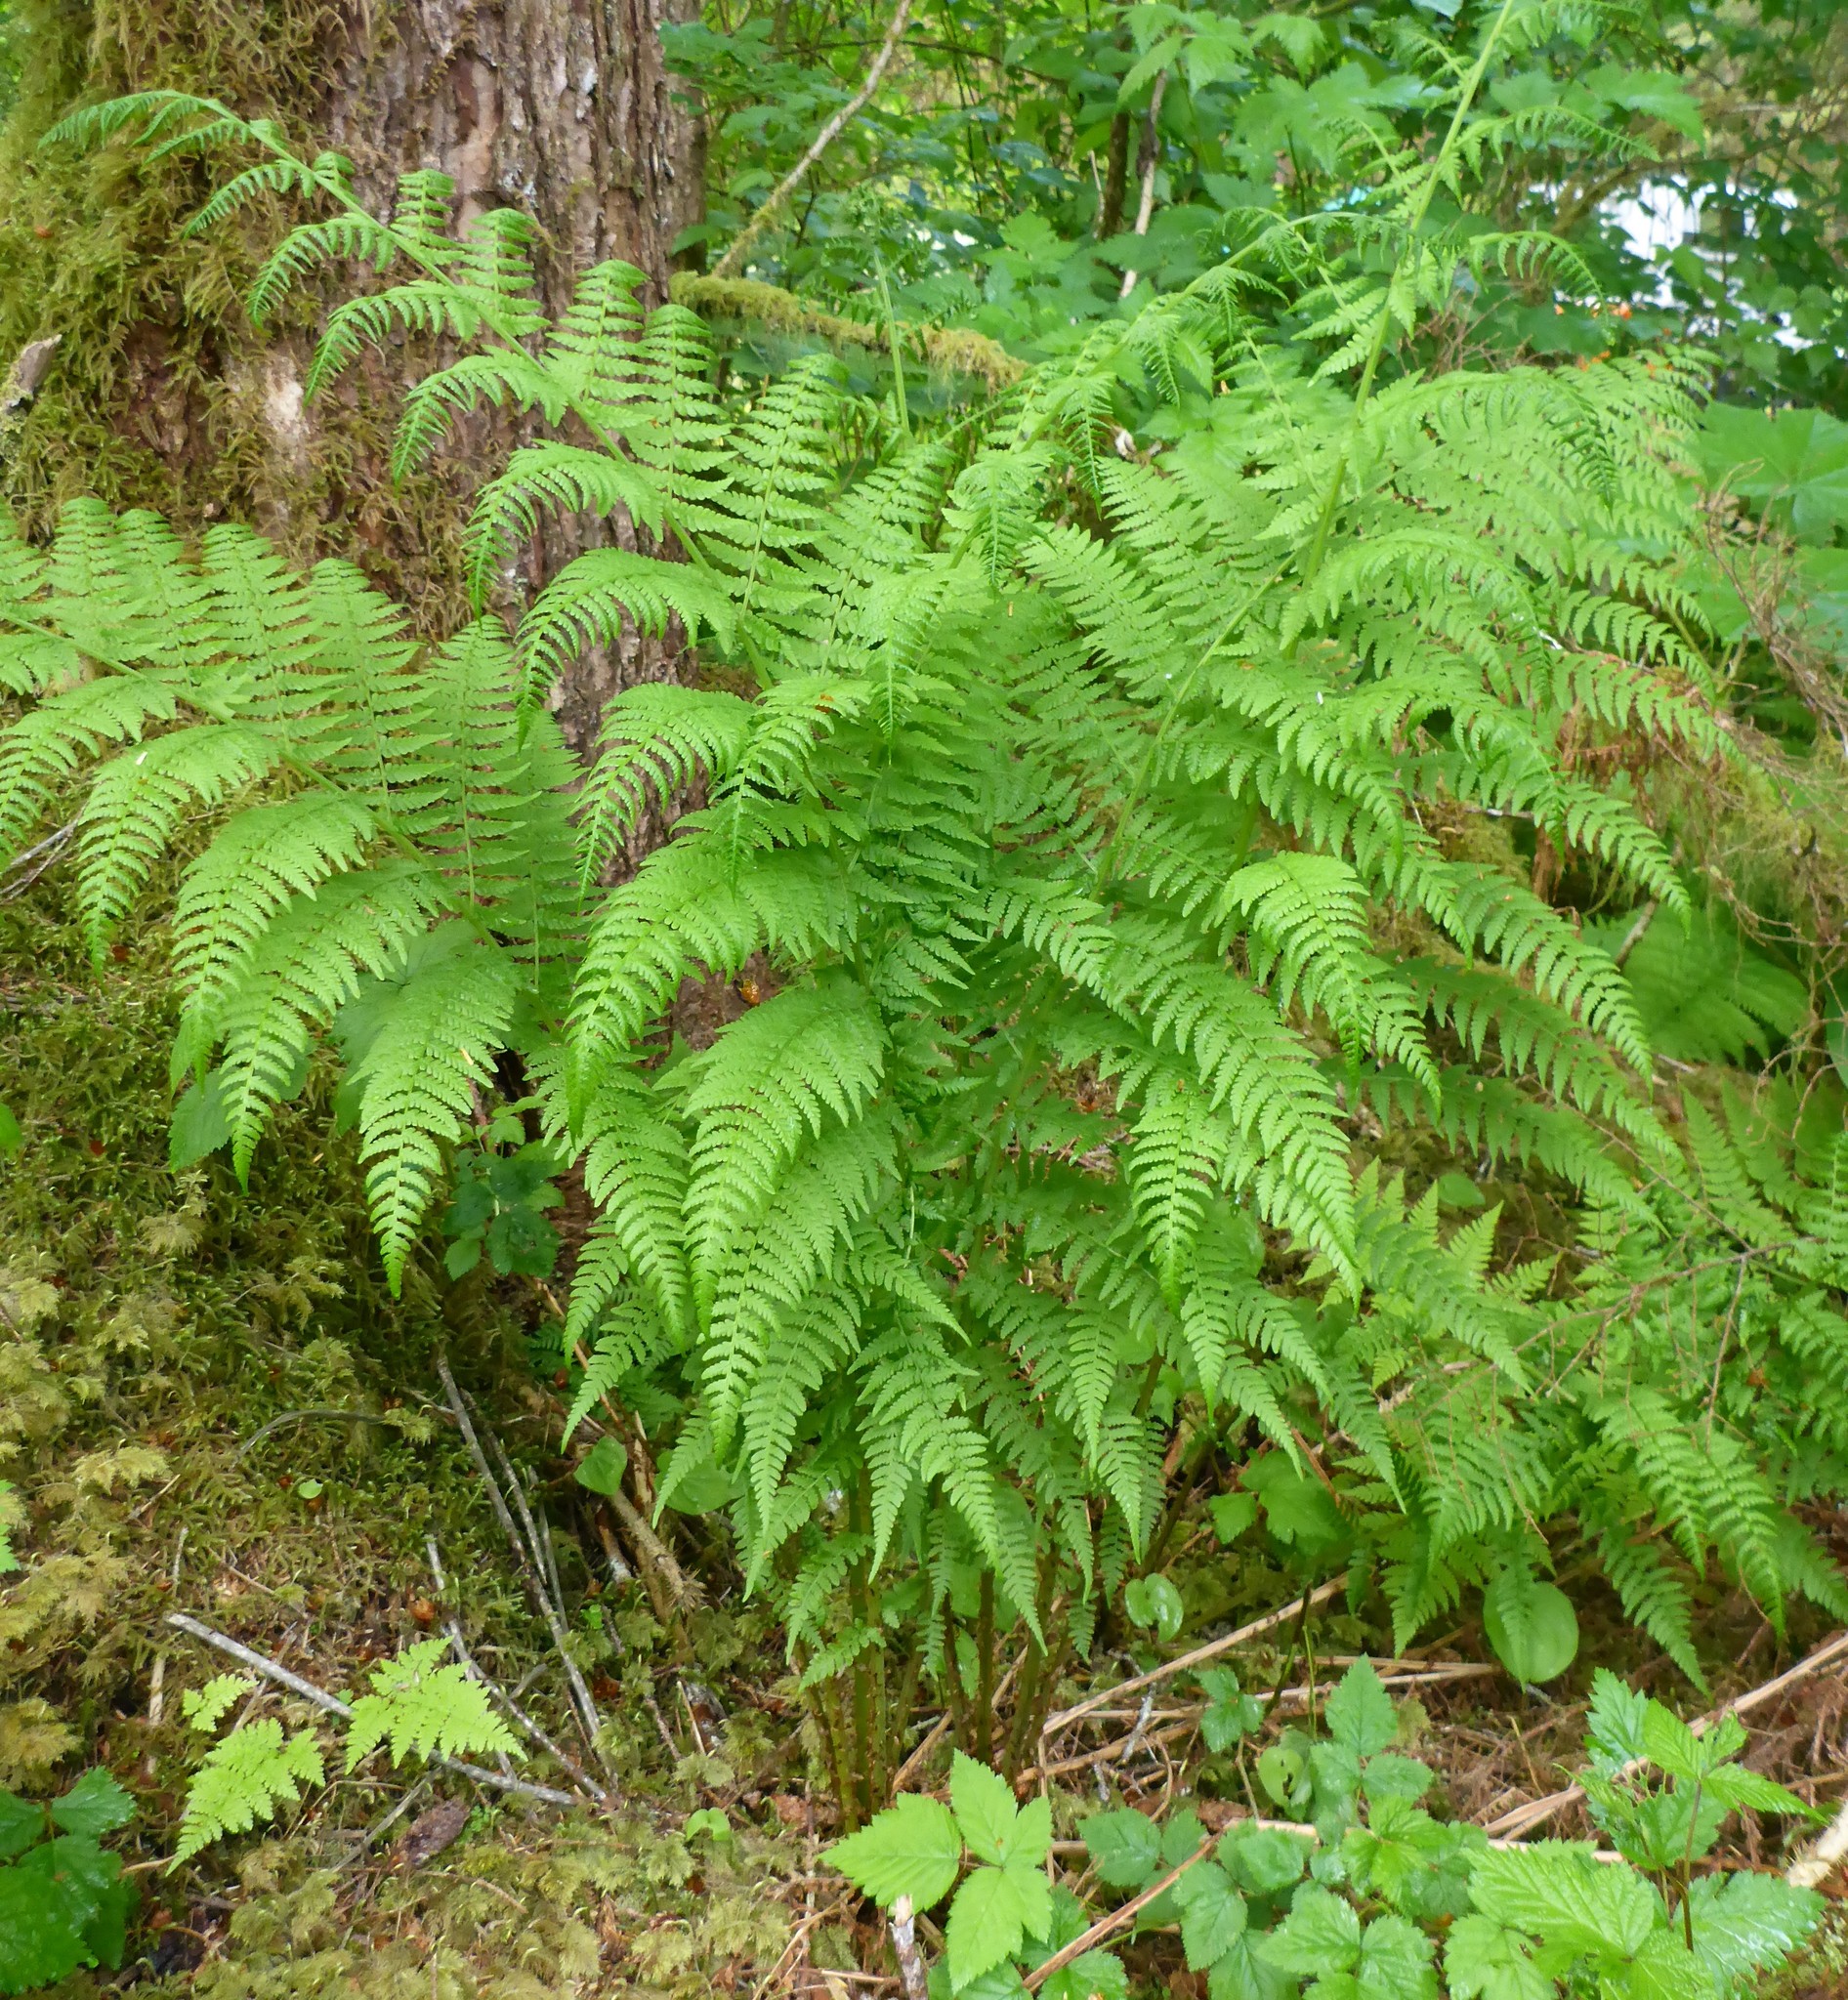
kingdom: Plantae
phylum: Tracheophyta
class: Polypodiopsida
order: Polypodiales
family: Athyriaceae
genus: Athyrium
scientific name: Athyrium filix-femina
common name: Lady fern
